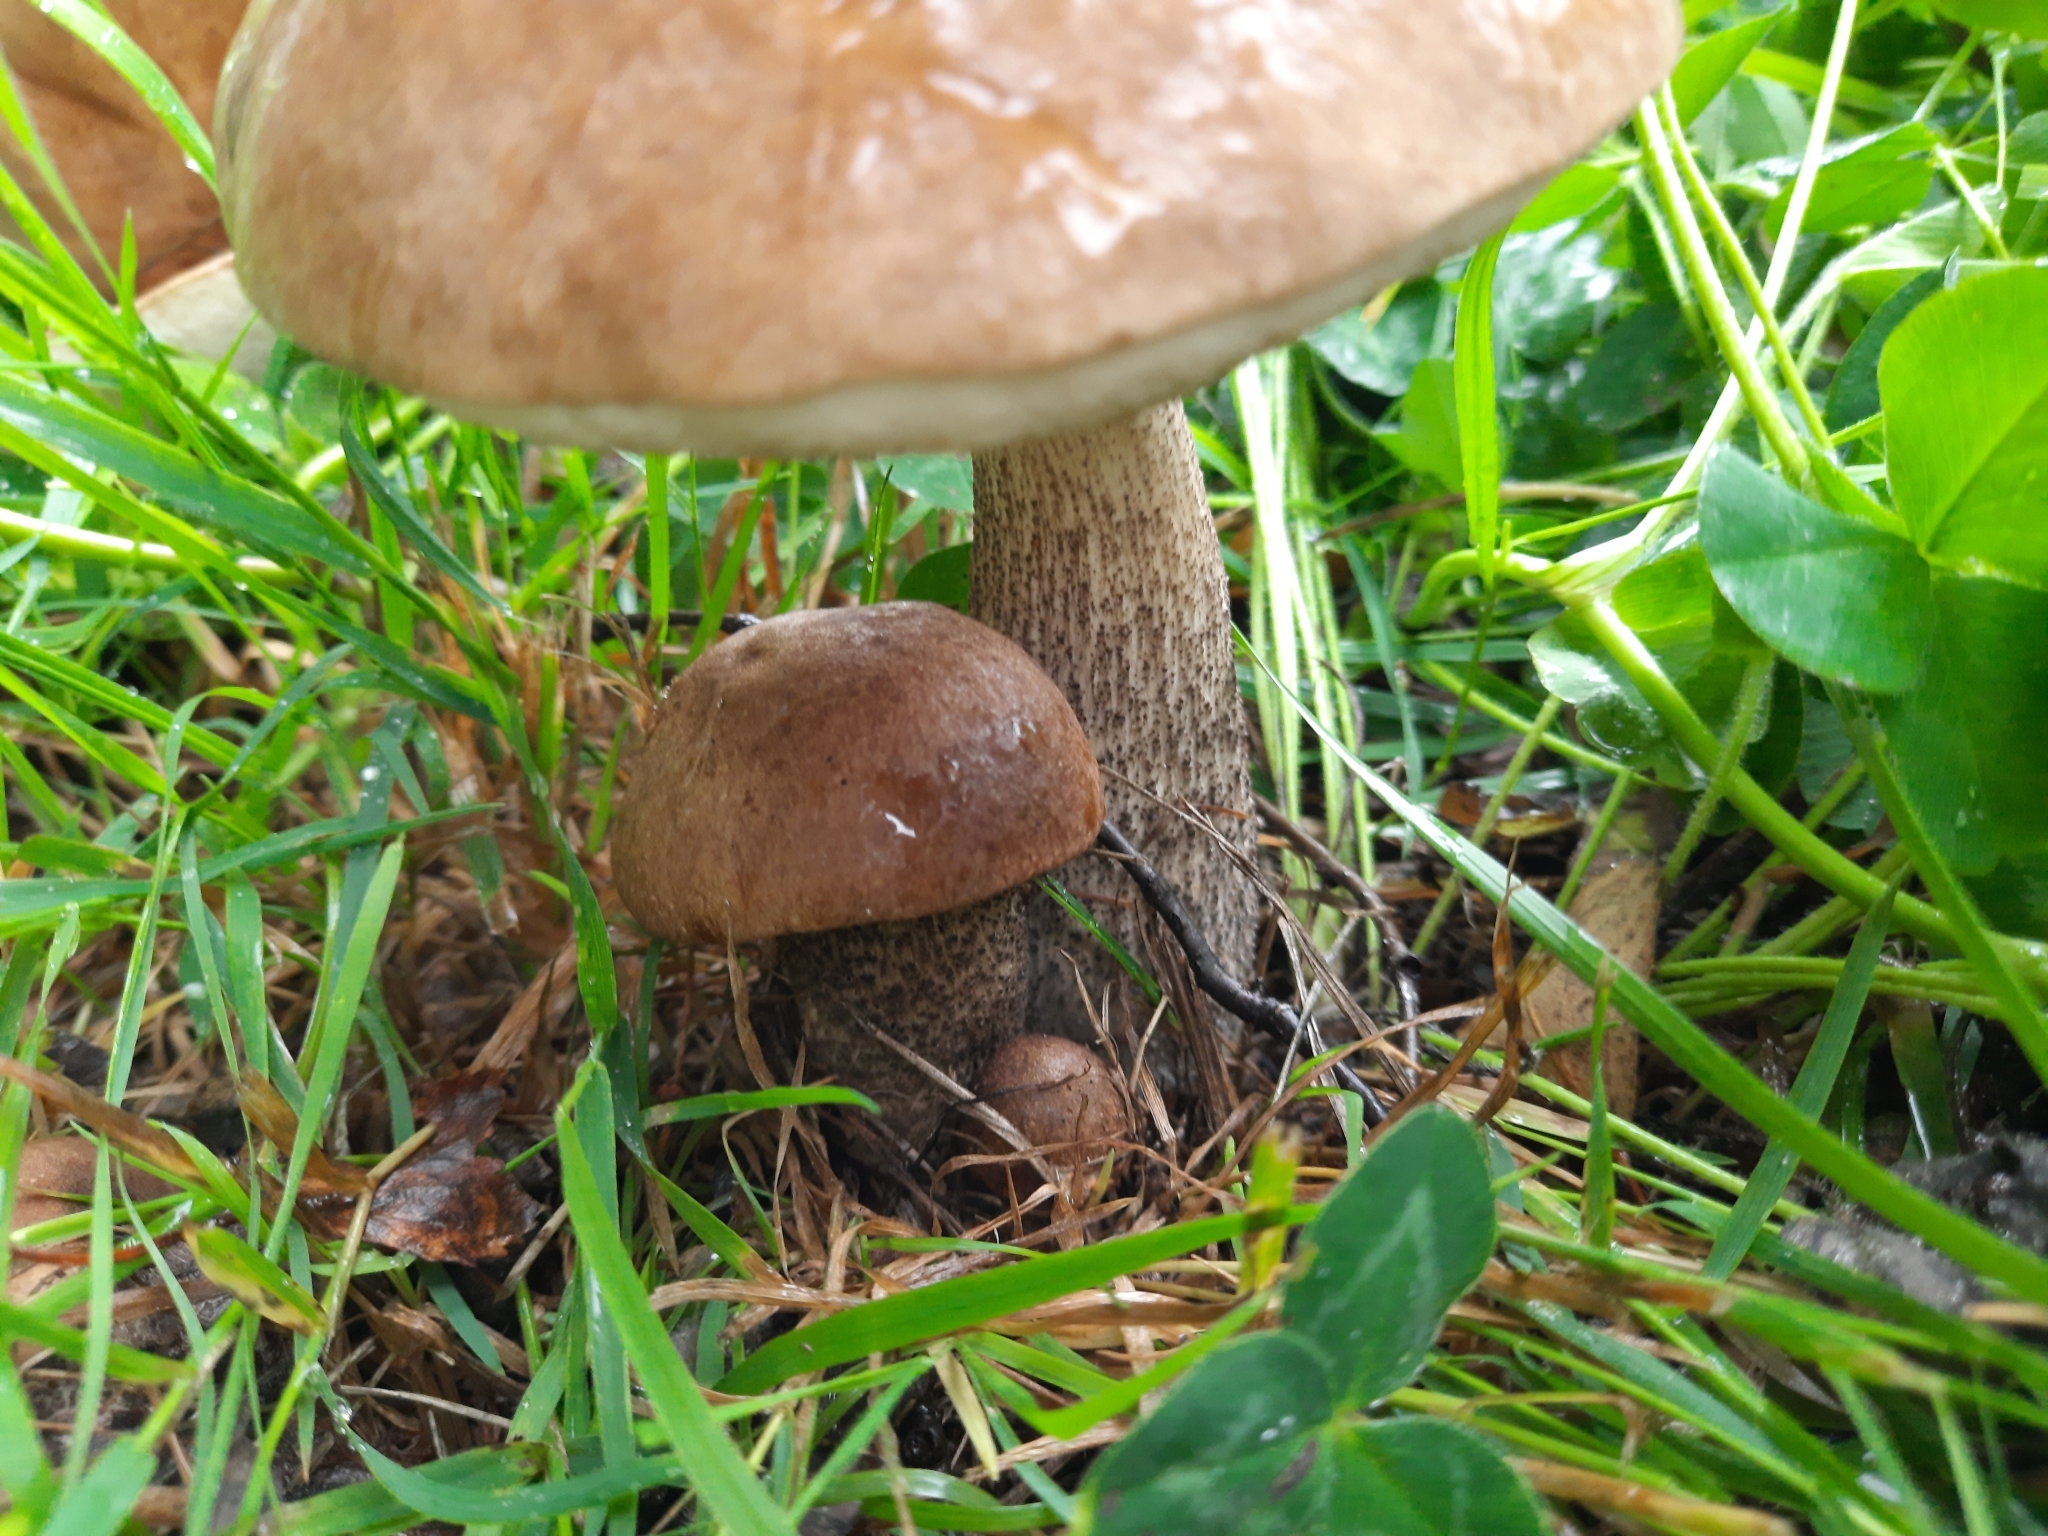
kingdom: Fungi
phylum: Basidiomycota
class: Agaricomycetes
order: Boletales
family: Boletaceae
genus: Leccinum
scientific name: Leccinum scabrum
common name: Blushing bolete
